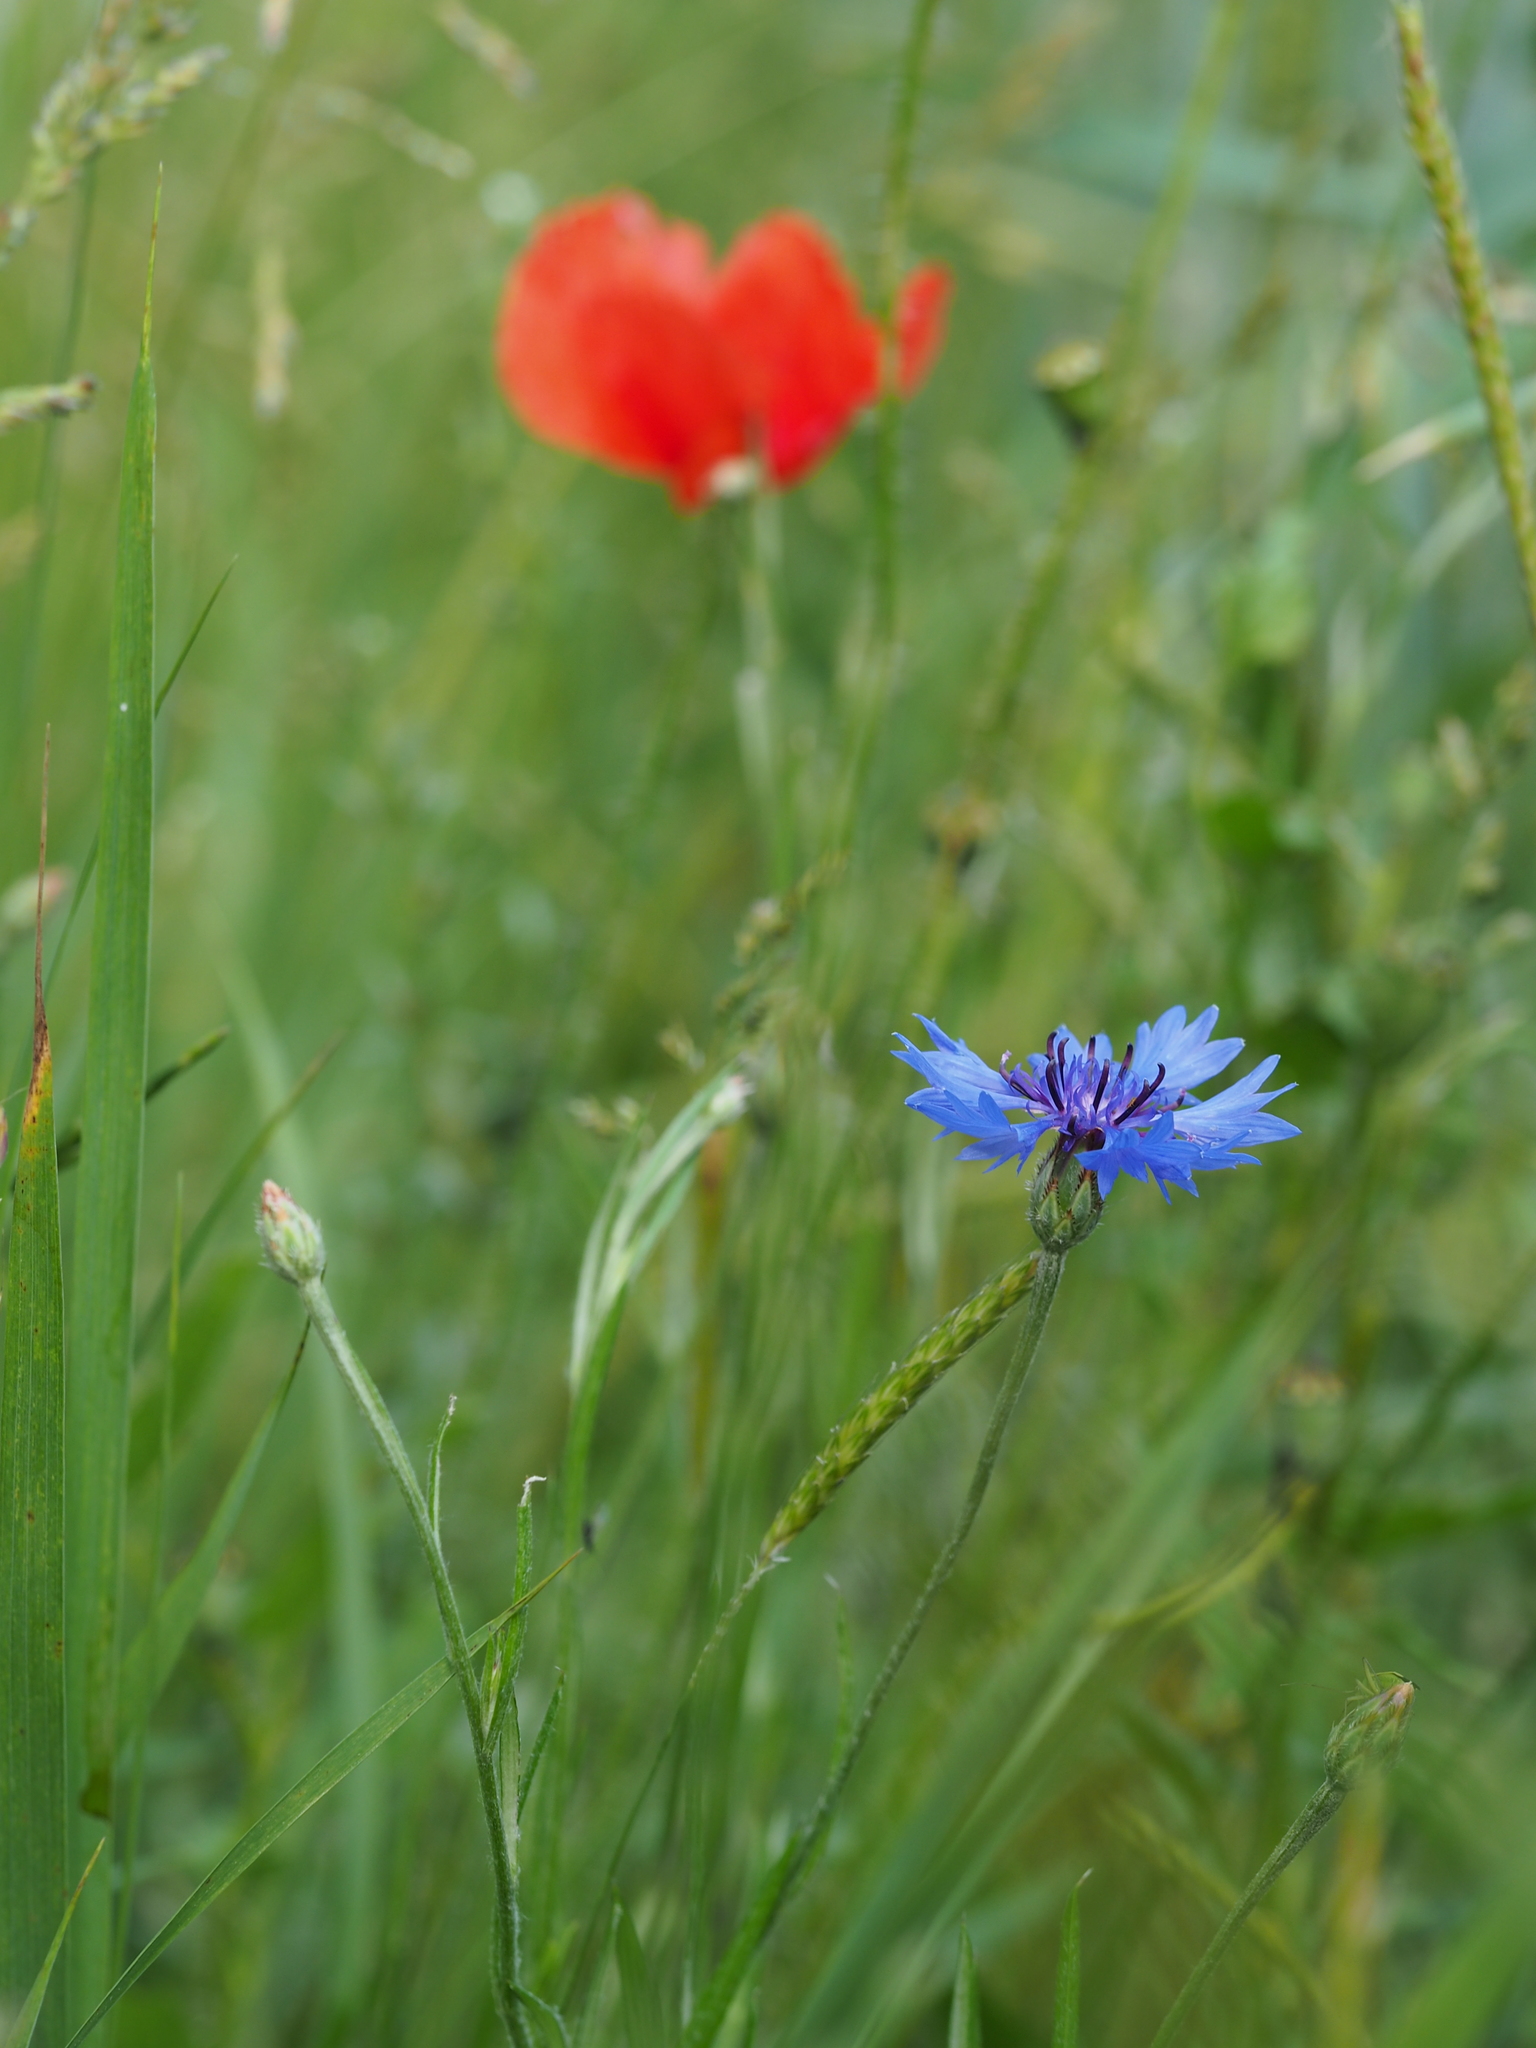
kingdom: Plantae
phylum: Tracheophyta
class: Magnoliopsida
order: Asterales
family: Asteraceae
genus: Centaurea
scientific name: Centaurea cyanus
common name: Cornflower
